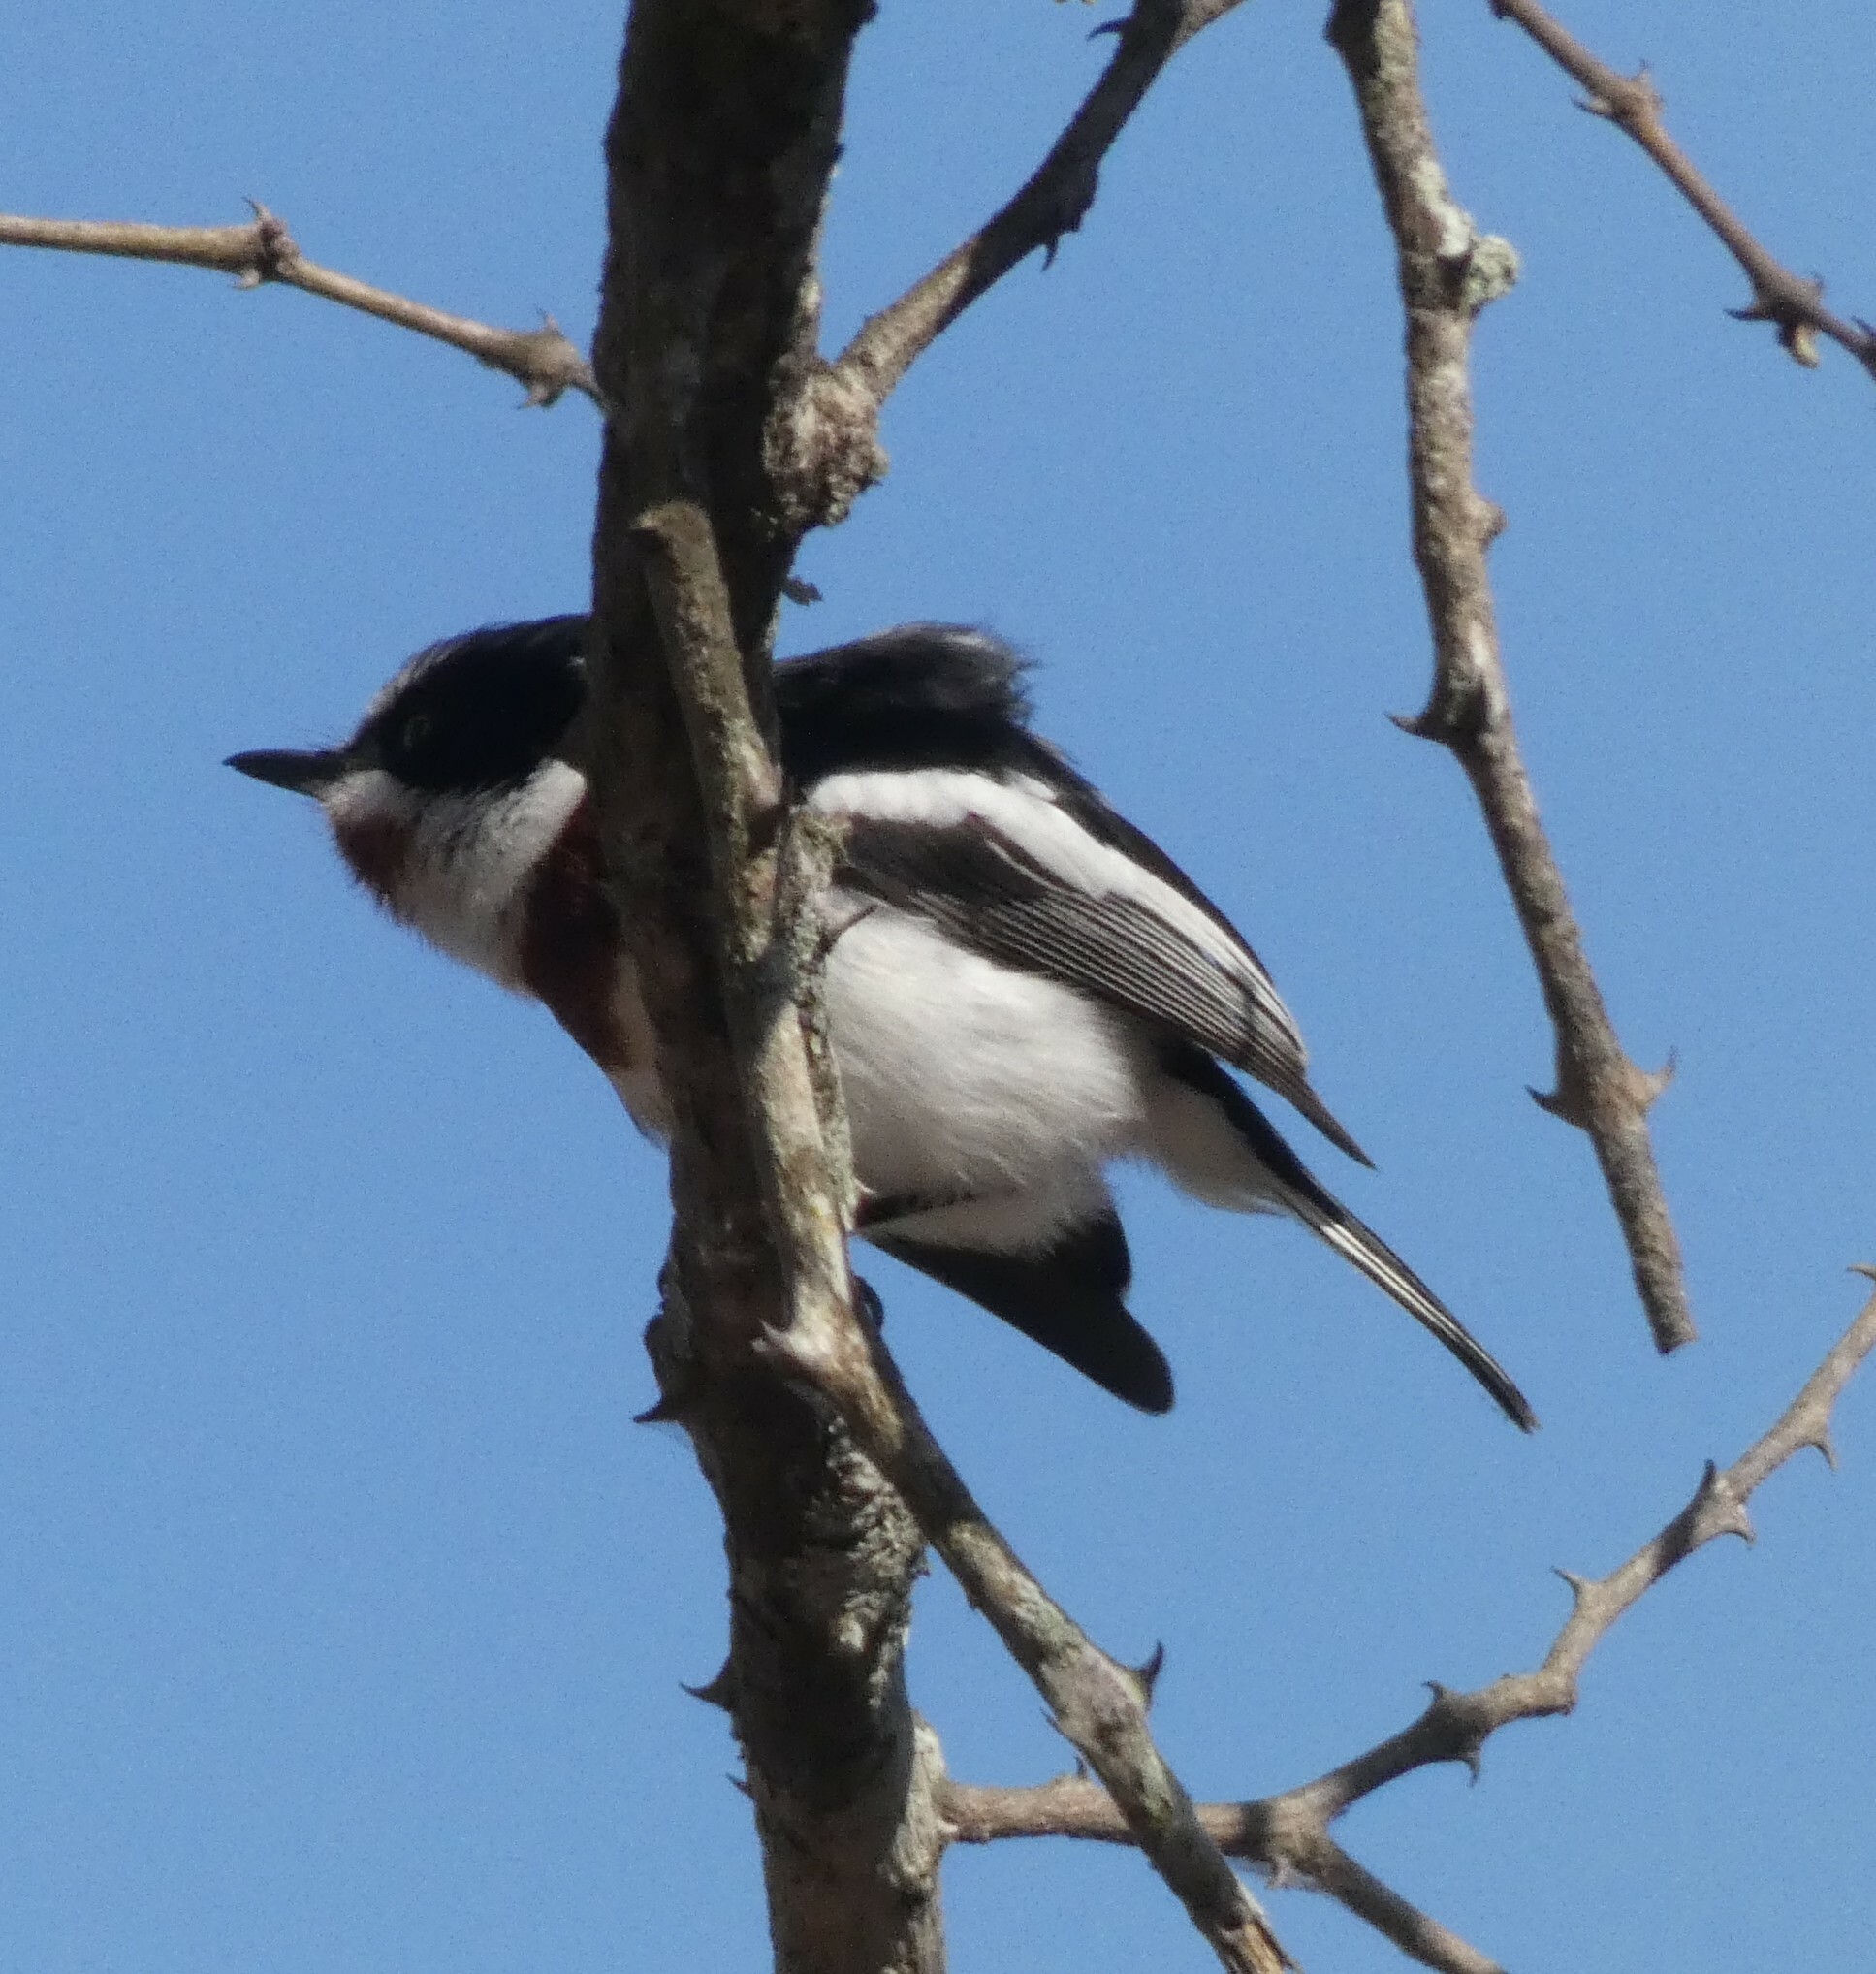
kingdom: Animalia
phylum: Chordata
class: Aves
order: Passeriformes
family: Platysteiridae
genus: Batis
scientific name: Batis molitor
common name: Chinspot batis
